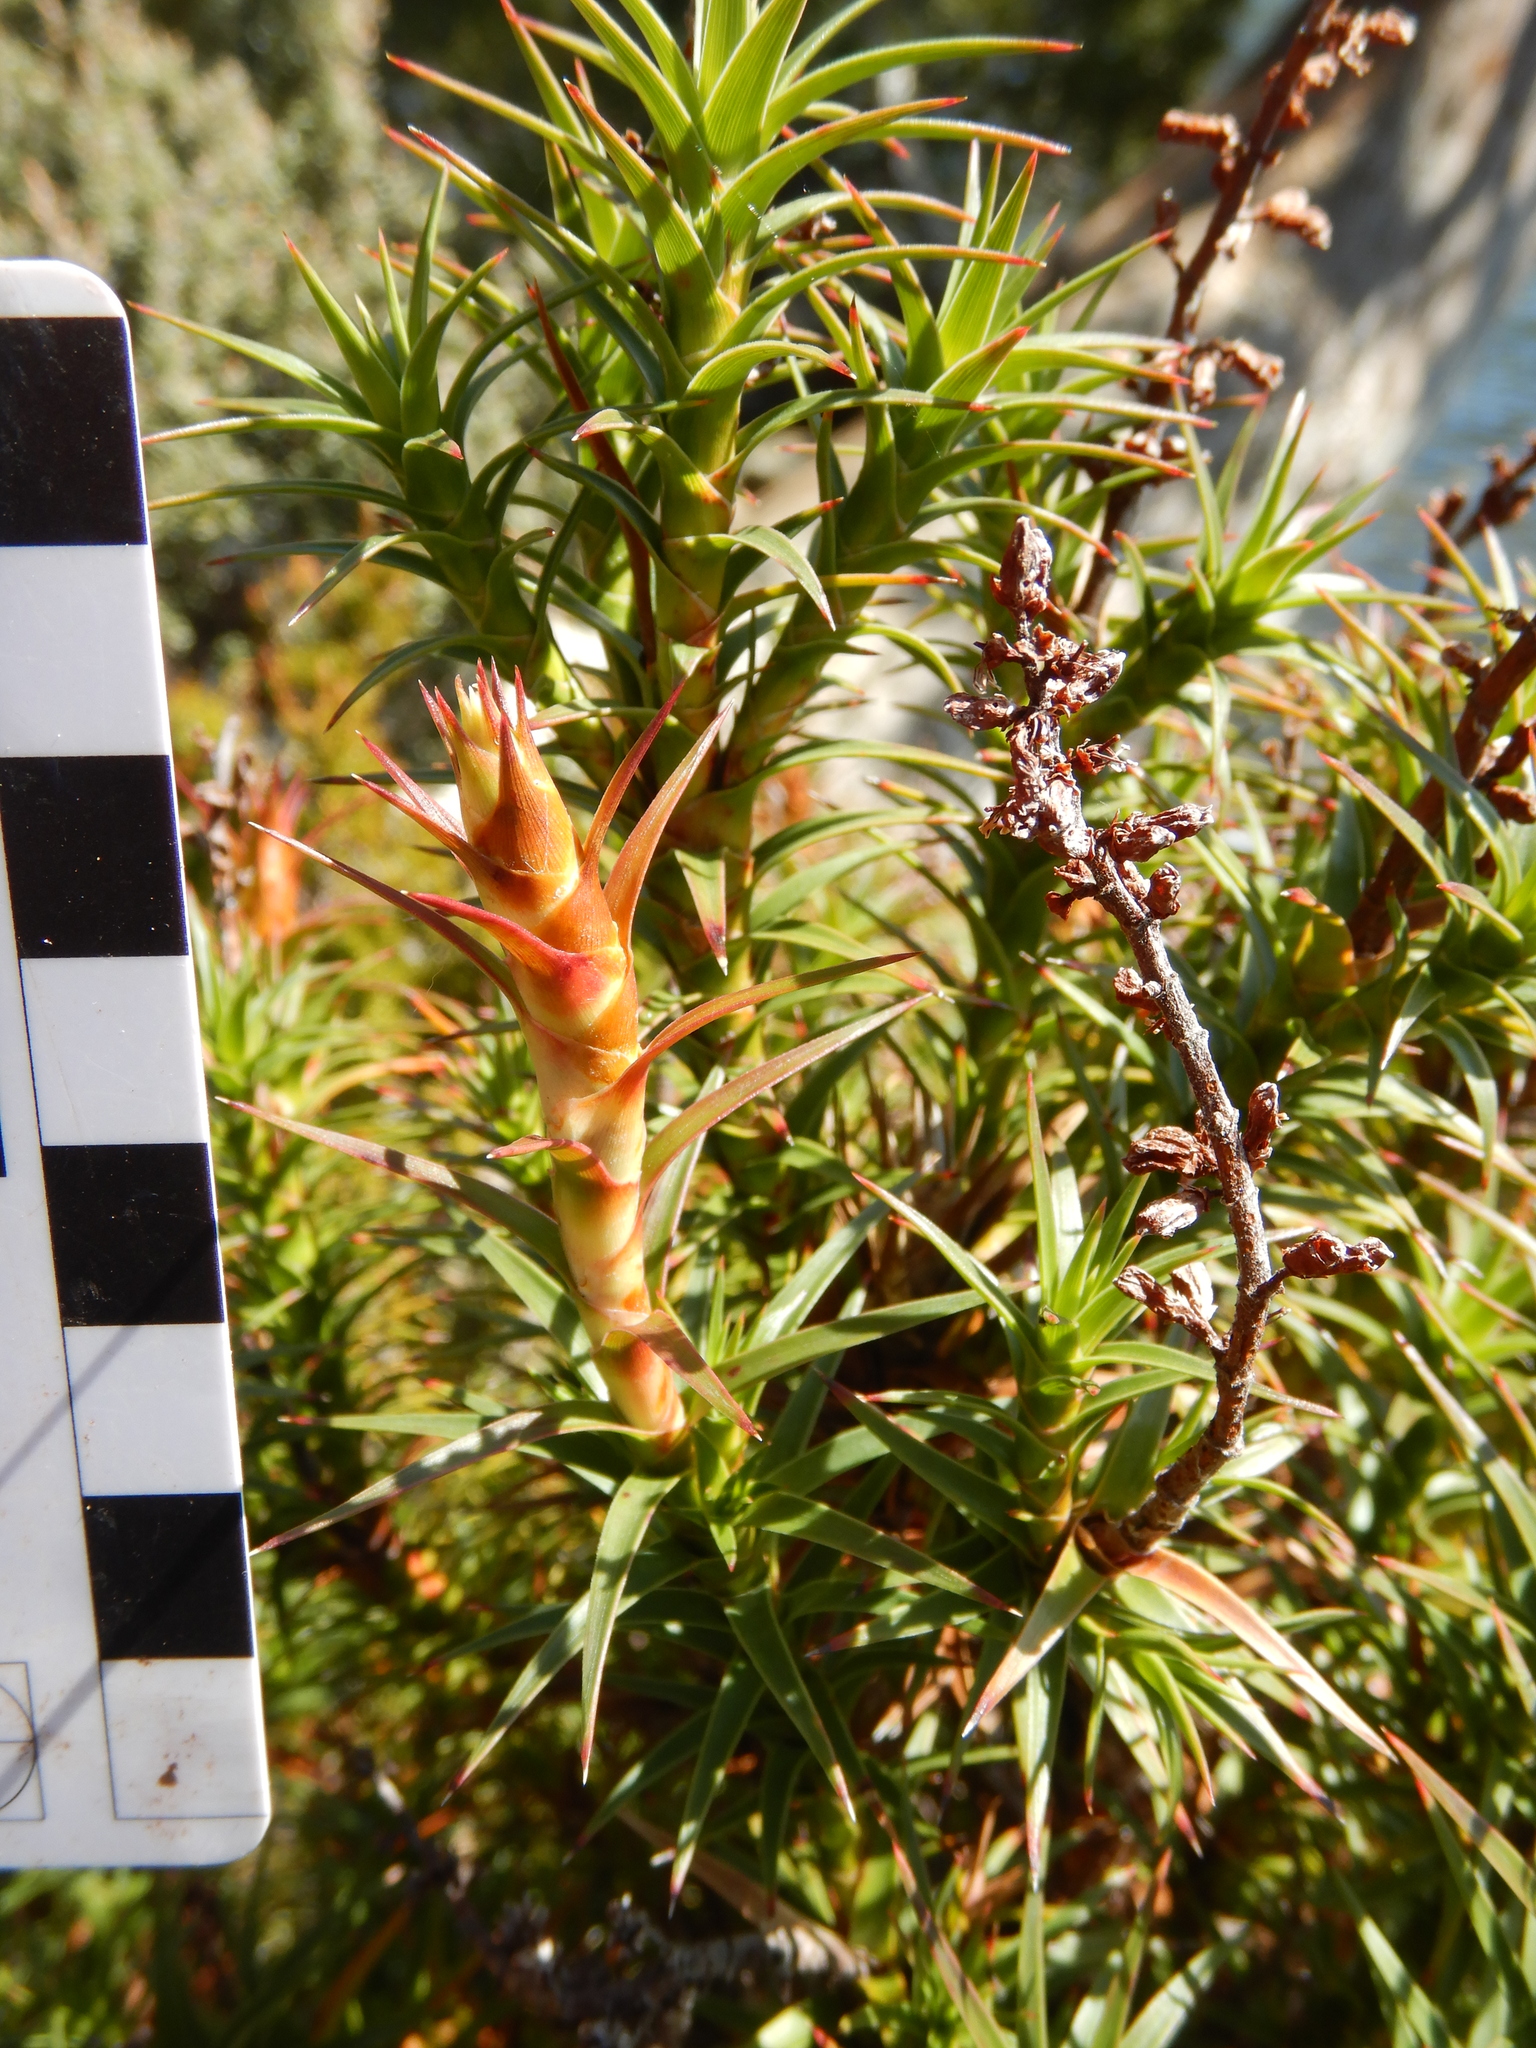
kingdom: Plantae
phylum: Tracheophyta
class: Magnoliopsida
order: Ericales
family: Ericaceae
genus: Dracophyllum
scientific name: Dracophyllum persistentifolium
